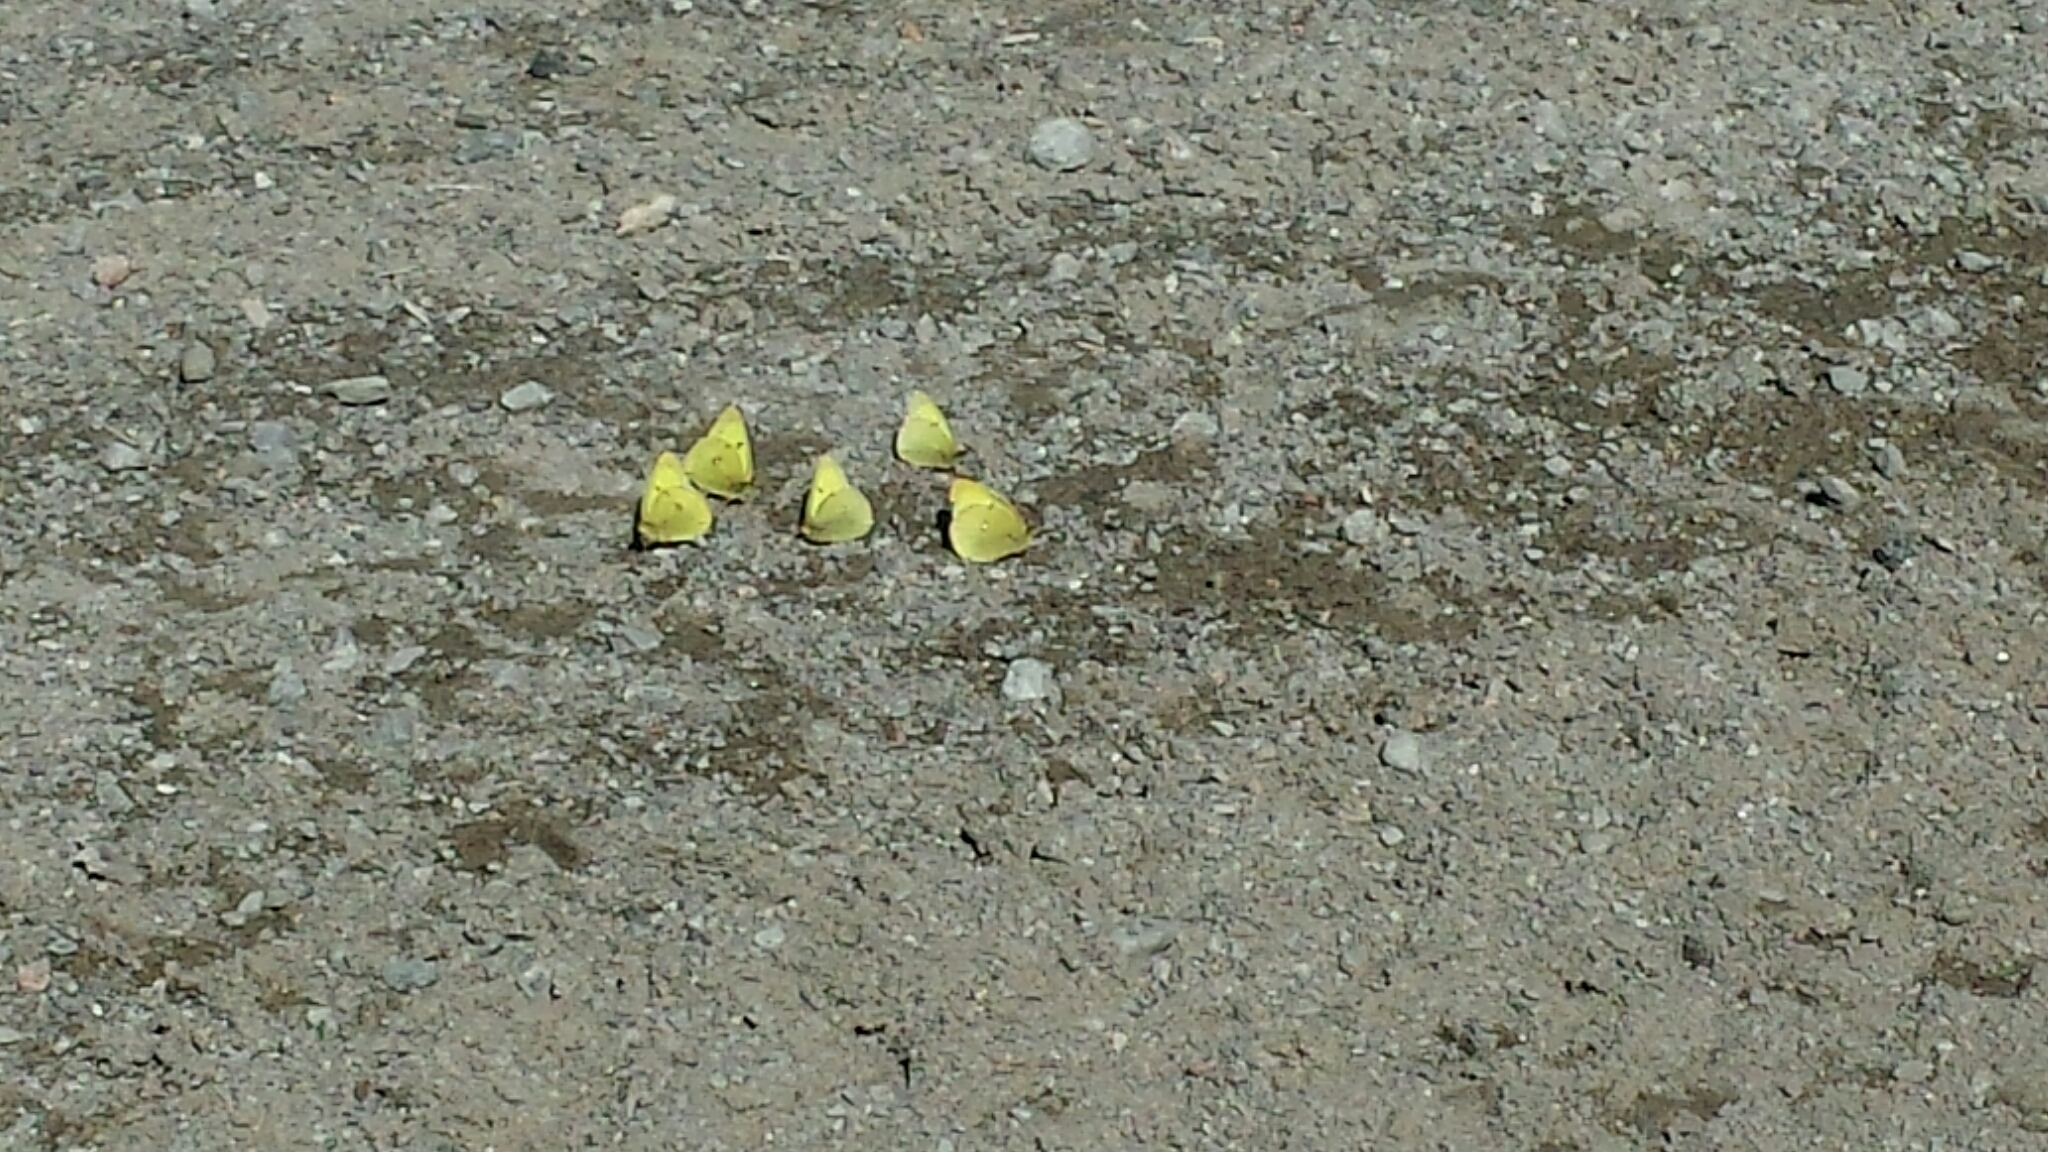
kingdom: Animalia
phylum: Arthropoda
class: Insecta
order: Lepidoptera
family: Pieridae
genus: Colias
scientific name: Colias philodice
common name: Clouded sulphur
